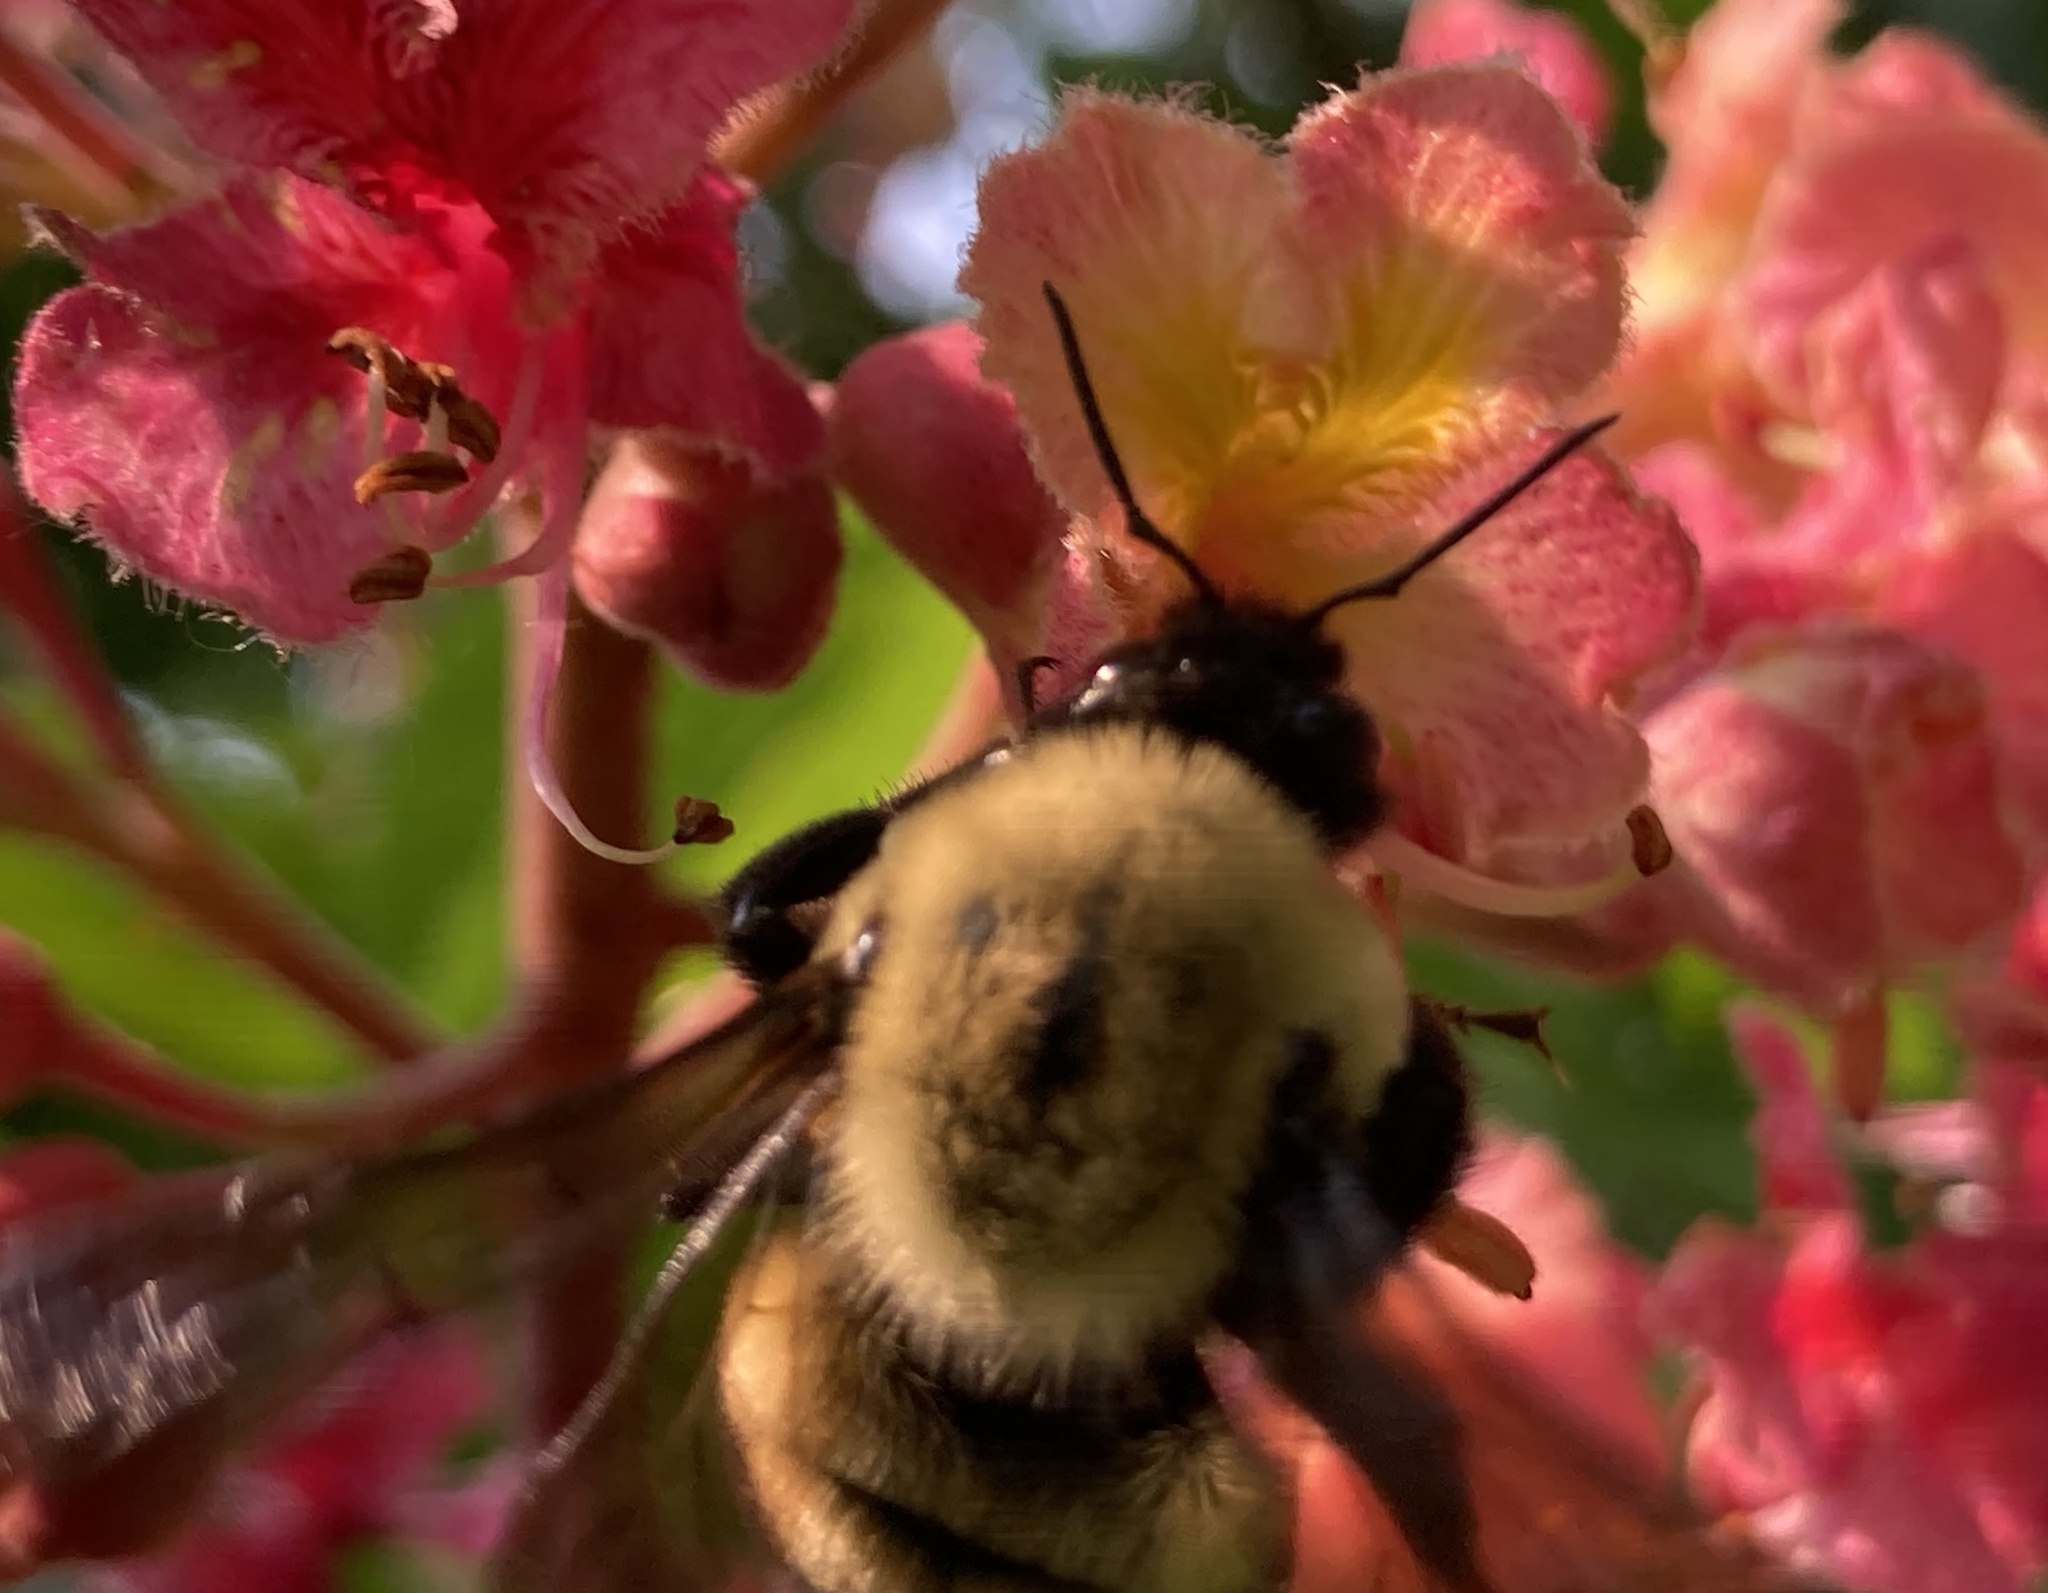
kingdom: Animalia
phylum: Arthropoda
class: Insecta
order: Hymenoptera
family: Apidae
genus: Bombus
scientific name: Bombus griseocollis
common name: Brown-belted bumble bee
